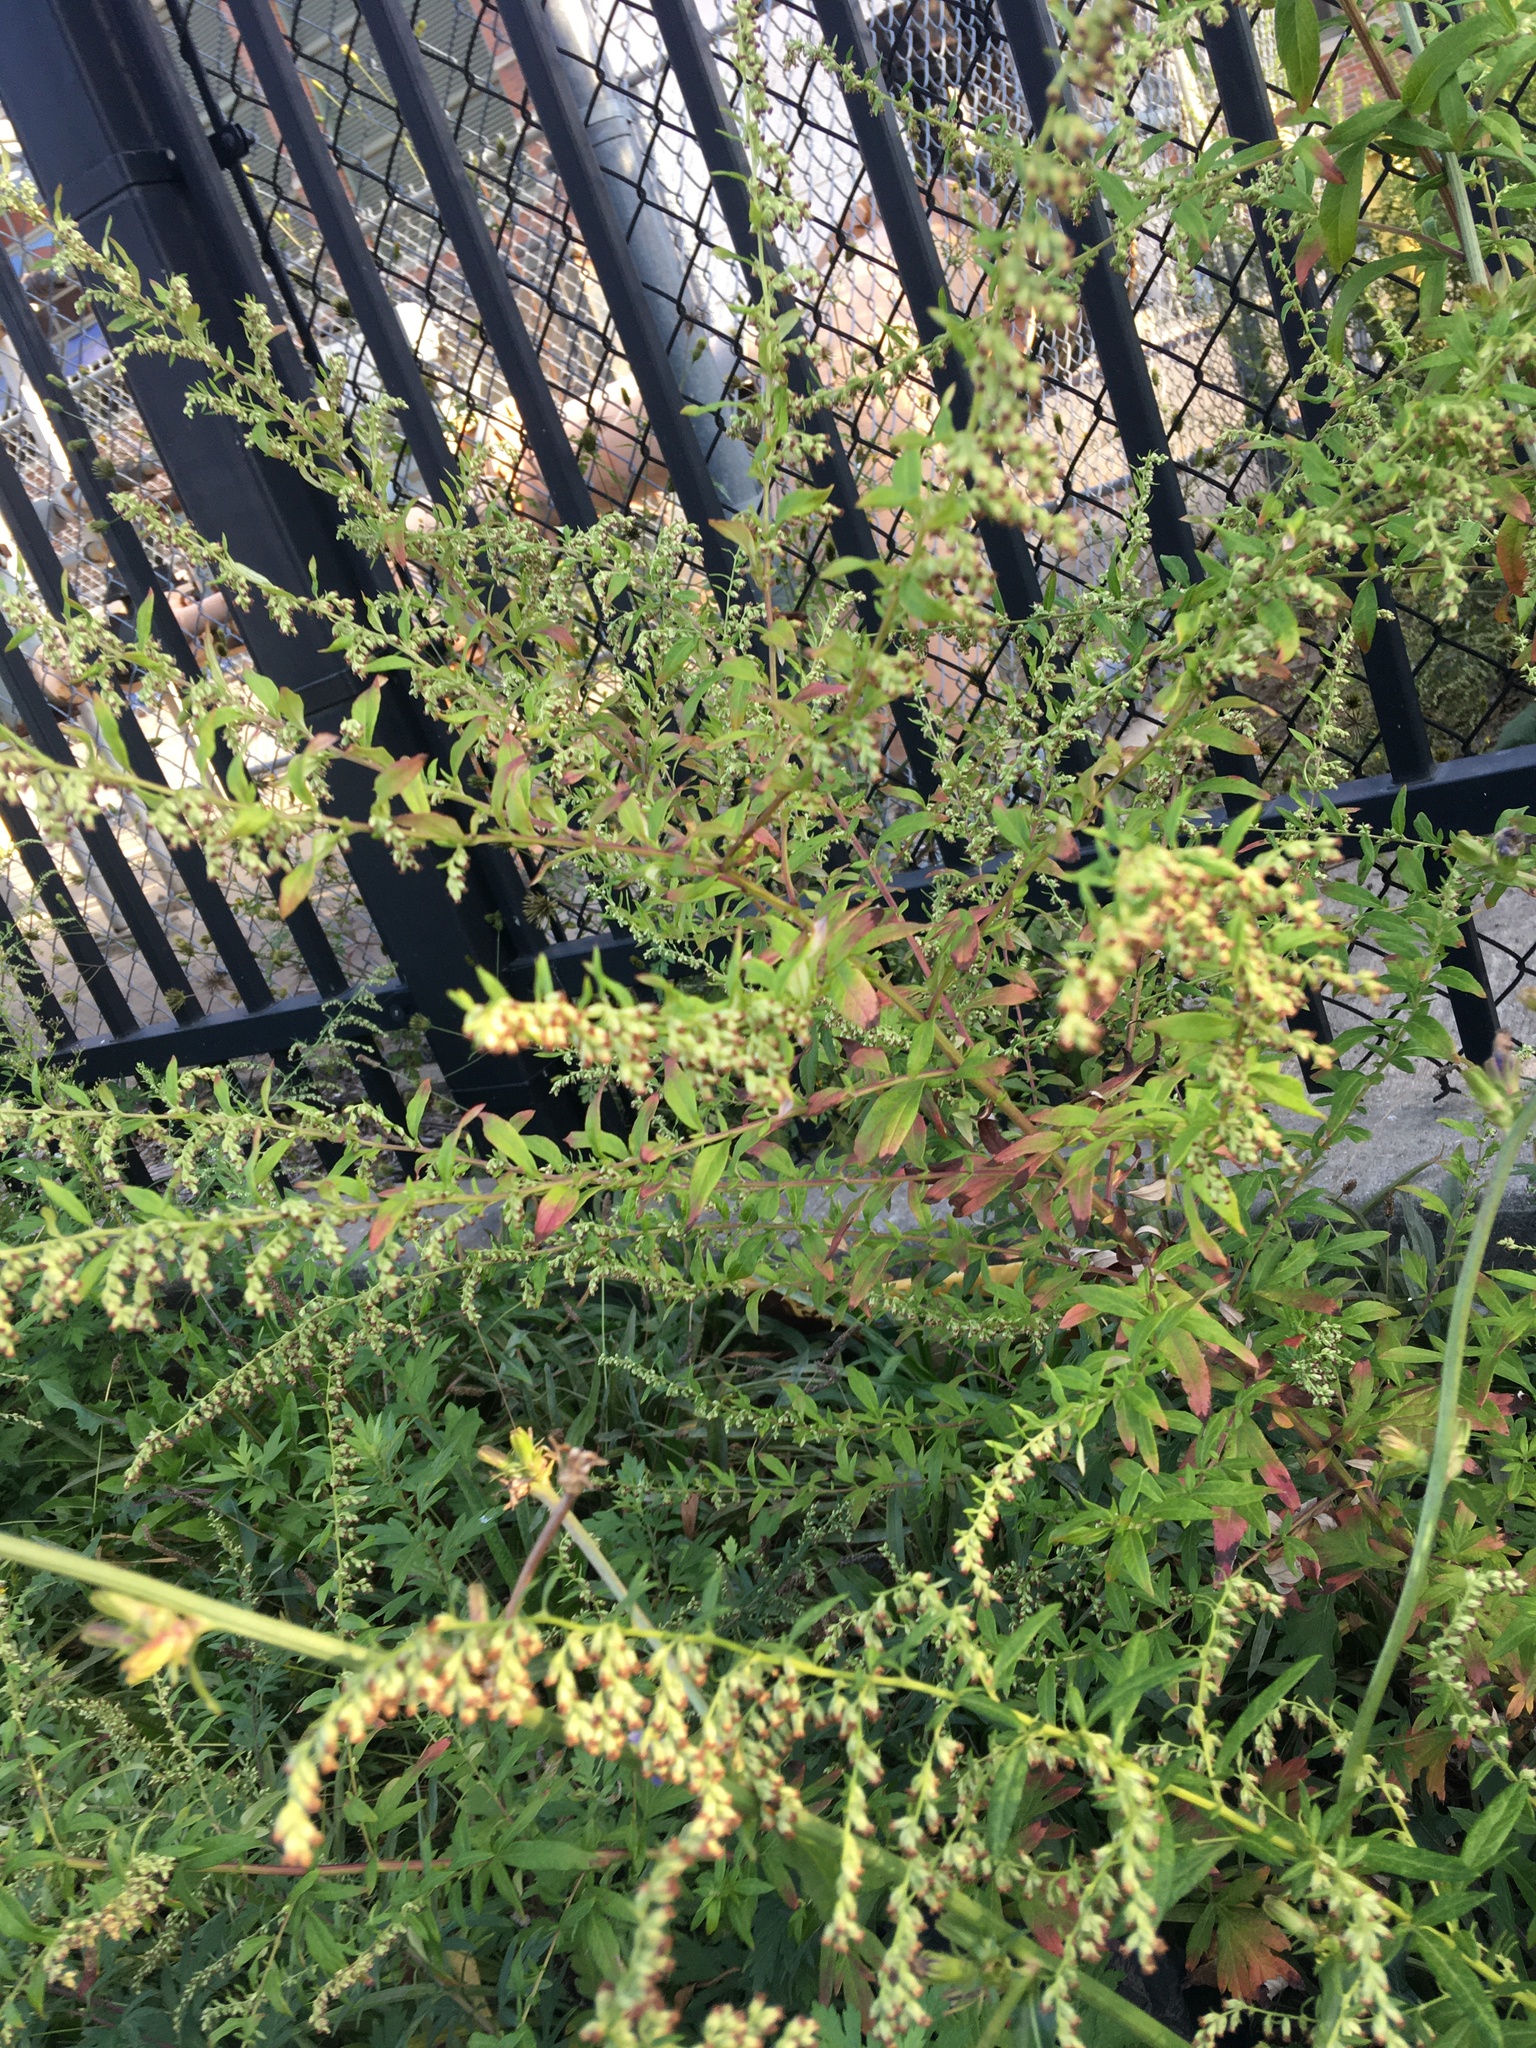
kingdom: Plantae
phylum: Tracheophyta
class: Magnoliopsida
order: Asterales
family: Asteraceae
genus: Artemisia
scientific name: Artemisia vulgaris
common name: Mugwort
